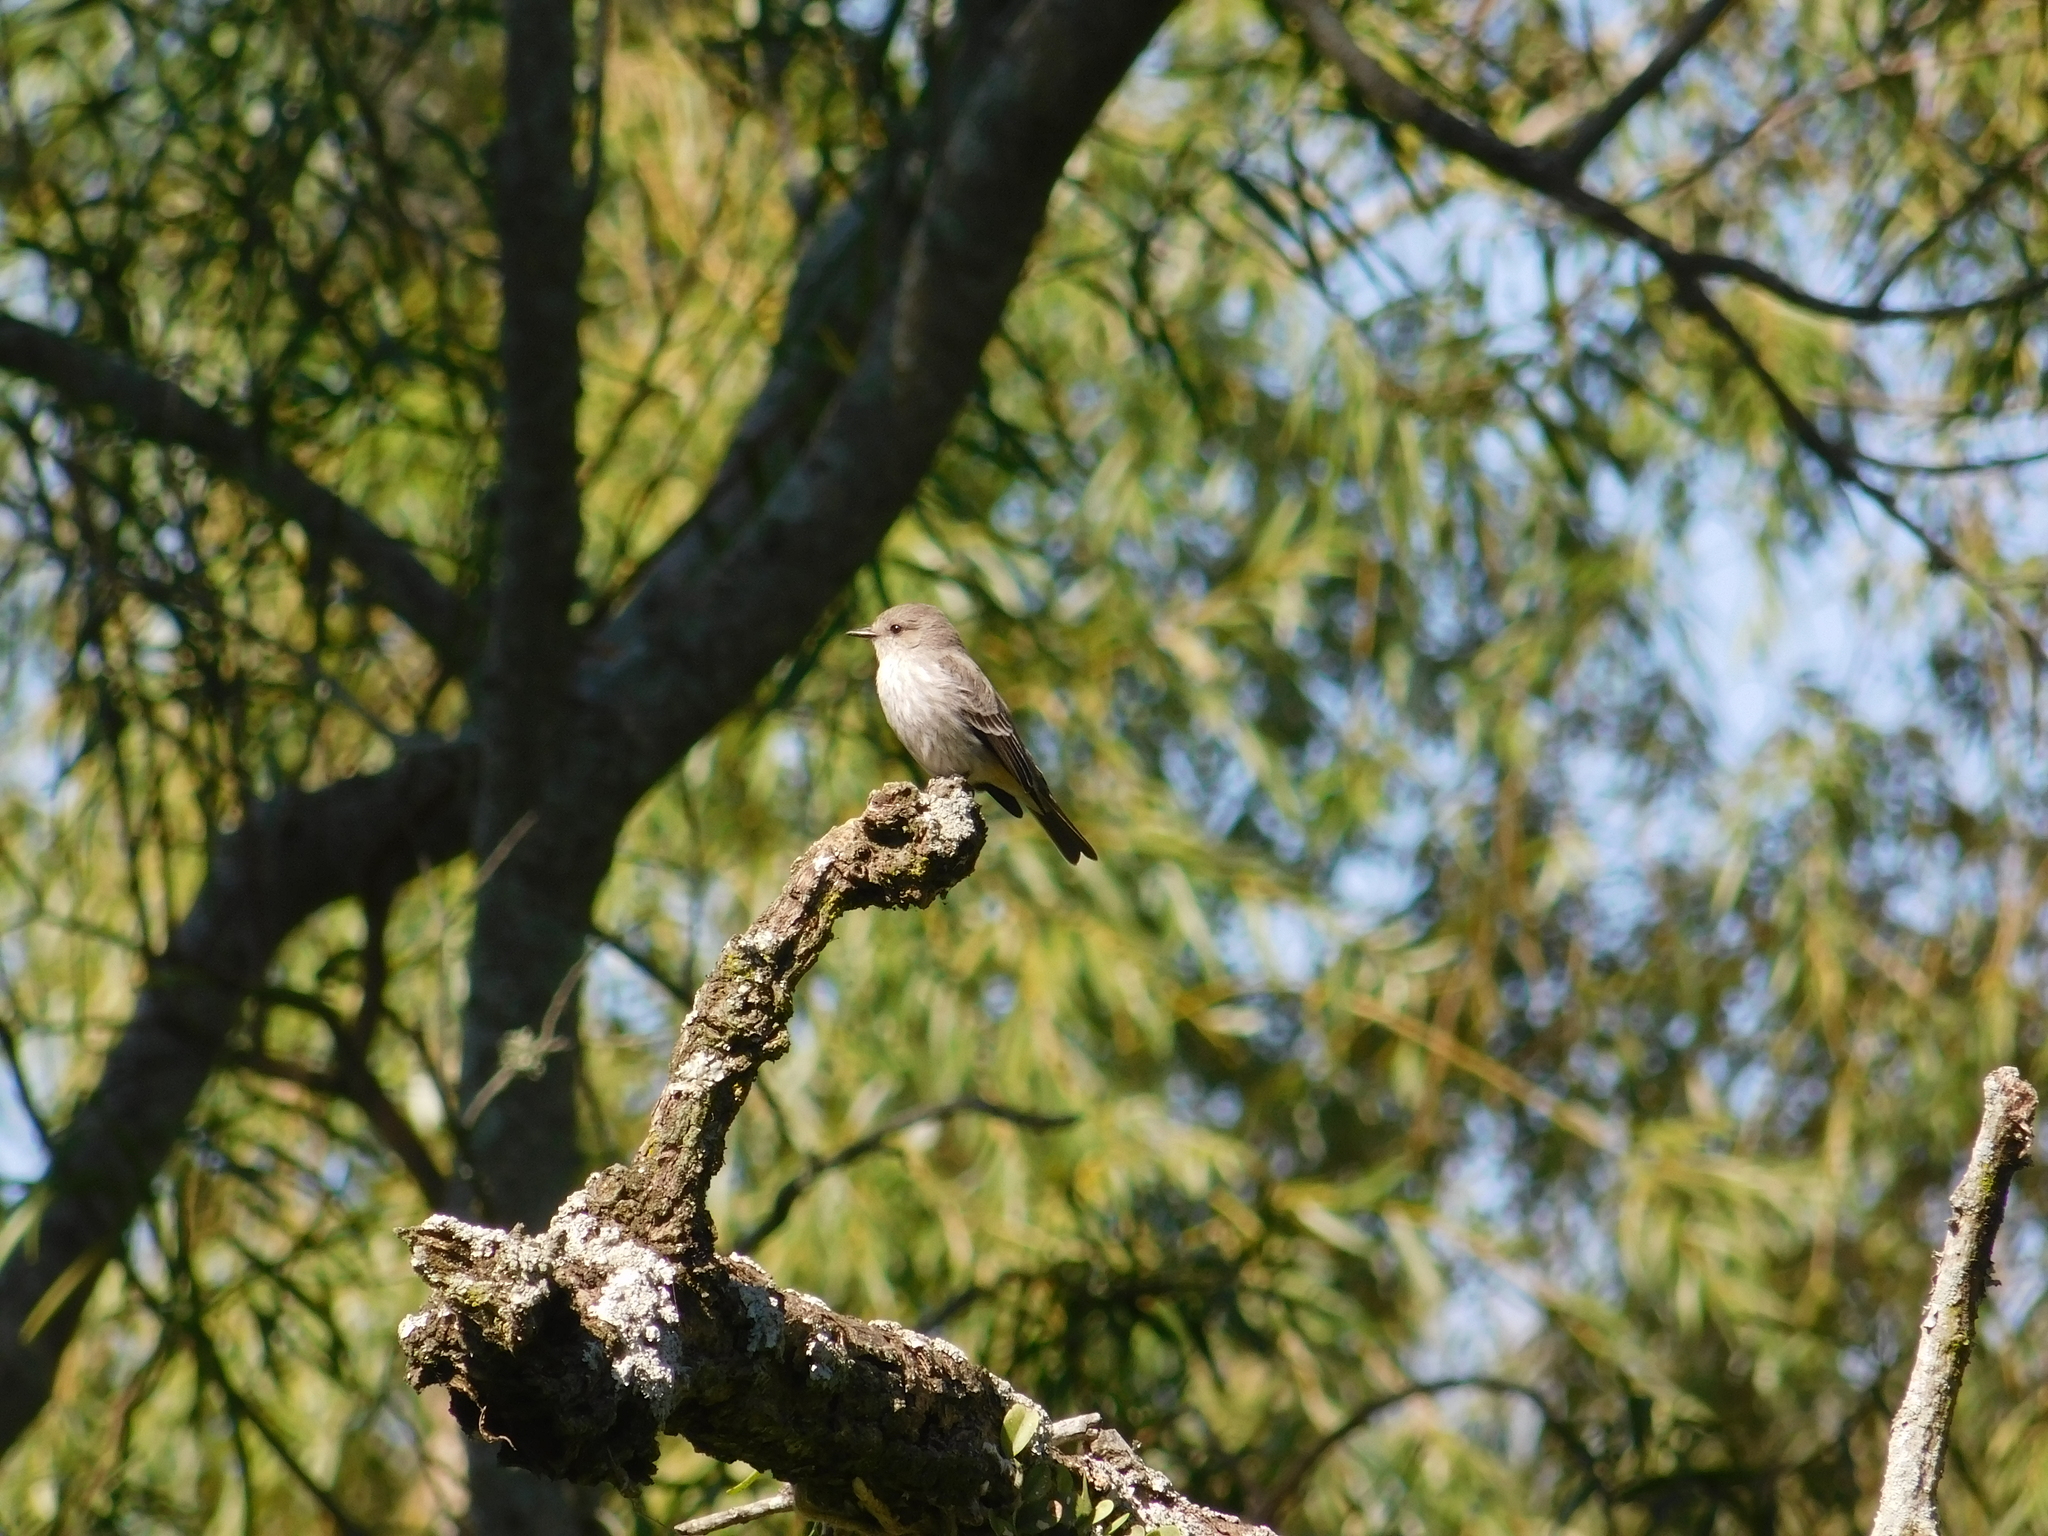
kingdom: Animalia
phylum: Chordata
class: Aves
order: Passeriformes
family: Tyrannidae
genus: Pyrocephalus
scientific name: Pyrocephalus rubinus
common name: Vermilion flycatcher
